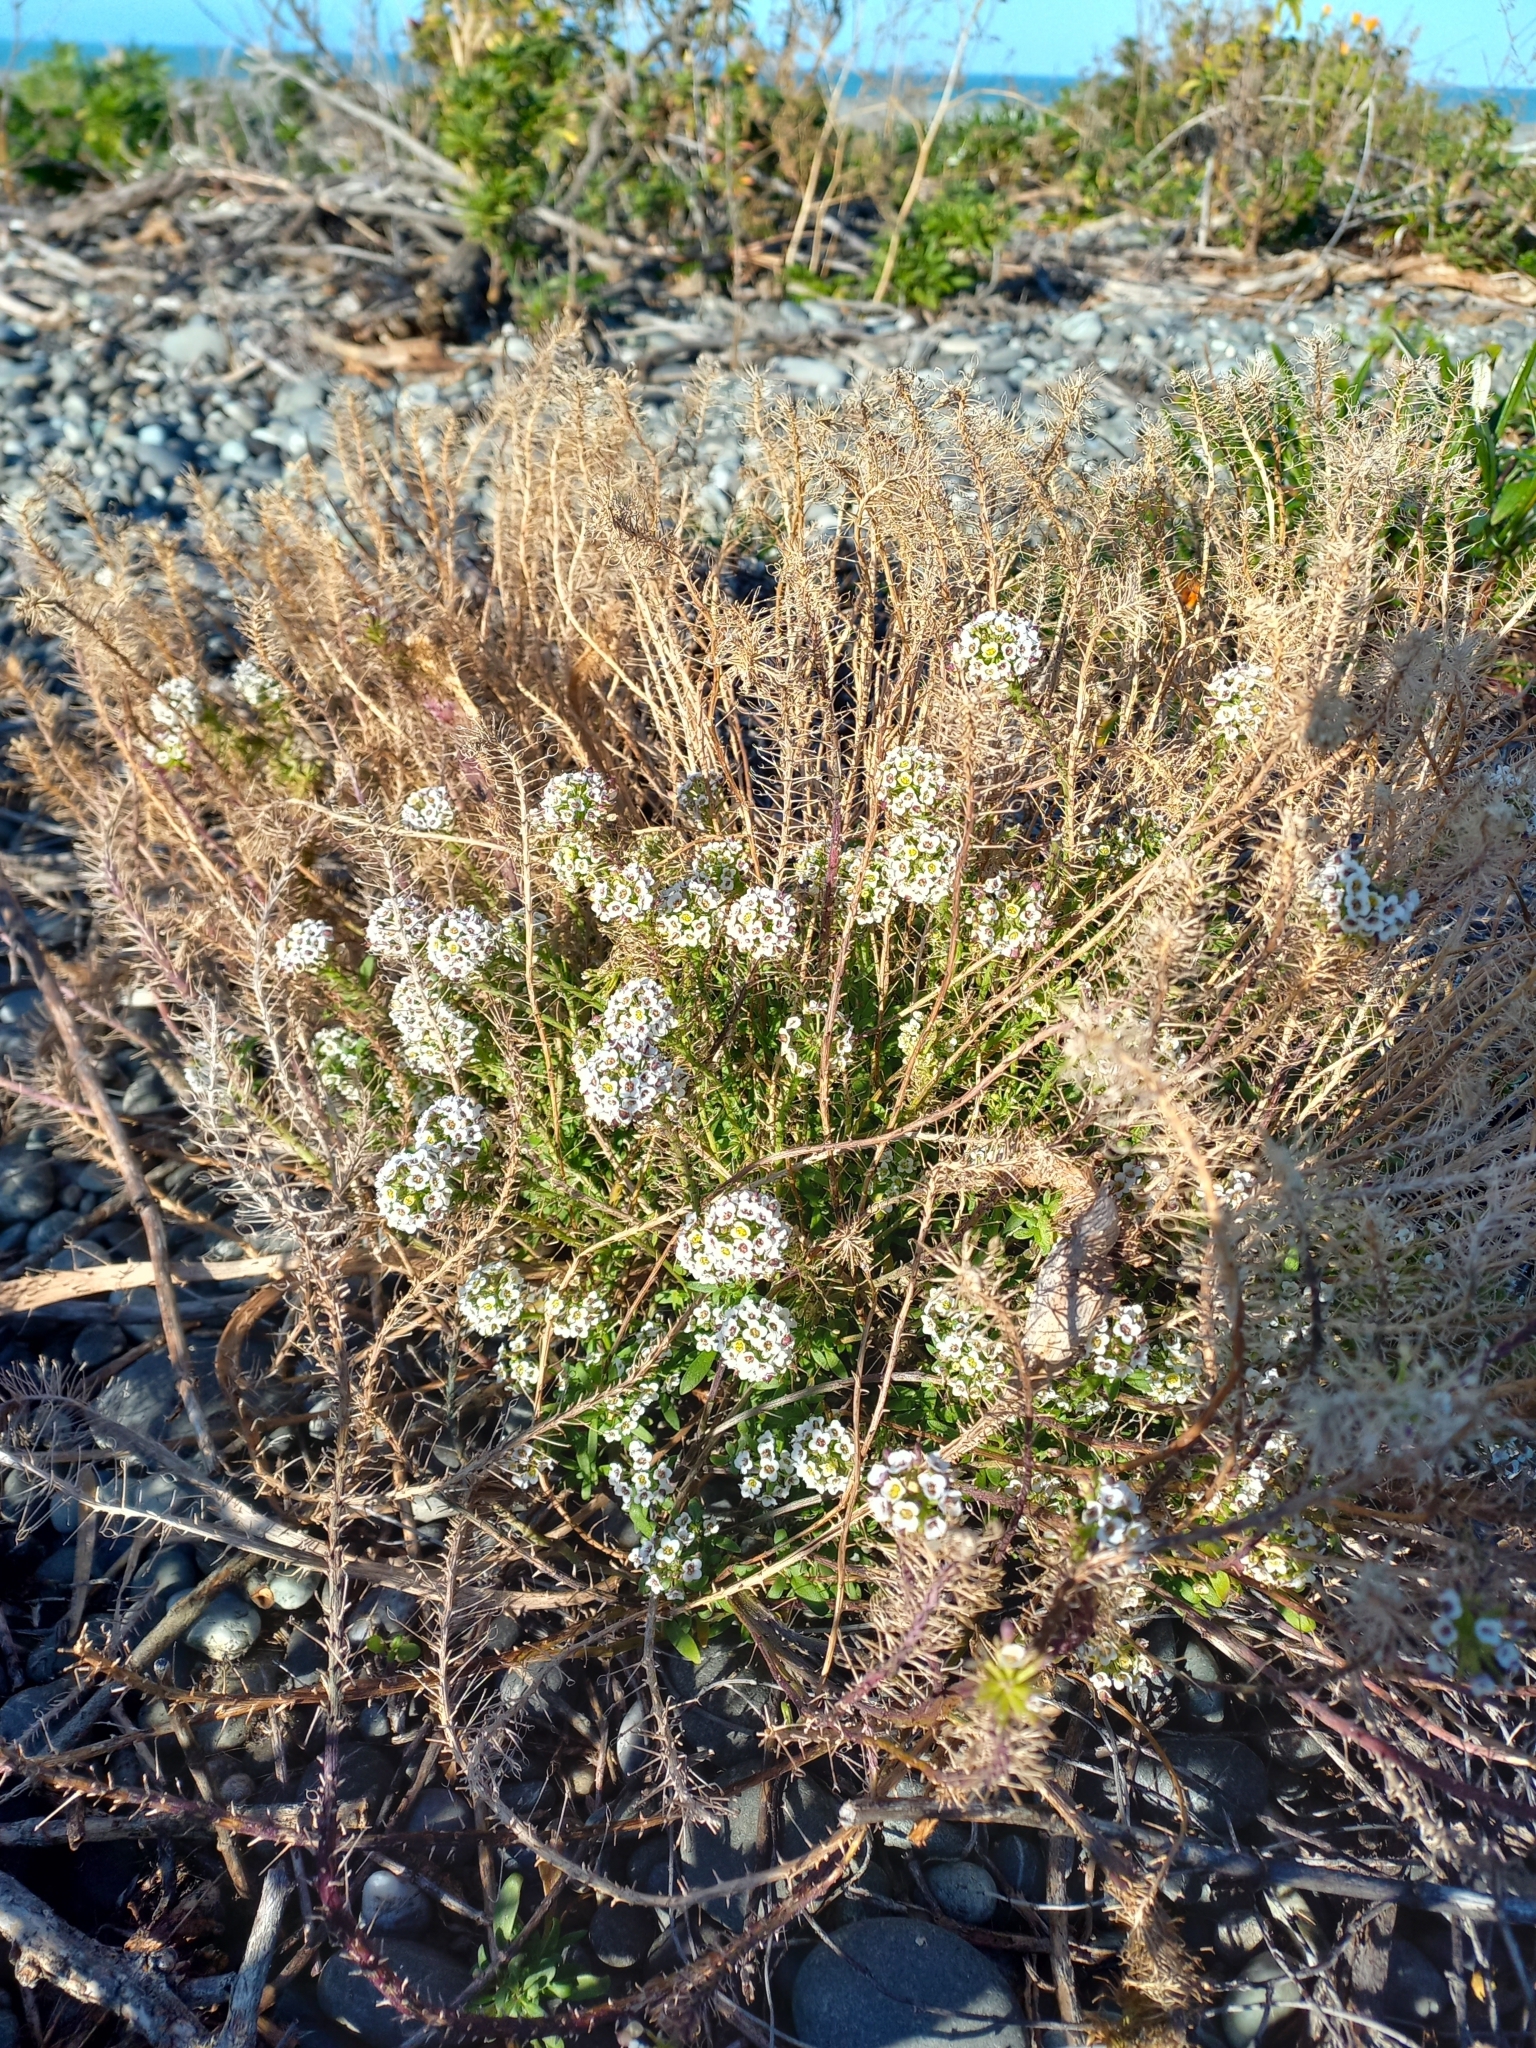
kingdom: Plantae
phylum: Tracheophyta
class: Magnoliopsida
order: Brassicales
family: Brassicaceae
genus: Lobularia
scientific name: Lobularia maritima
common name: Sweet alison
